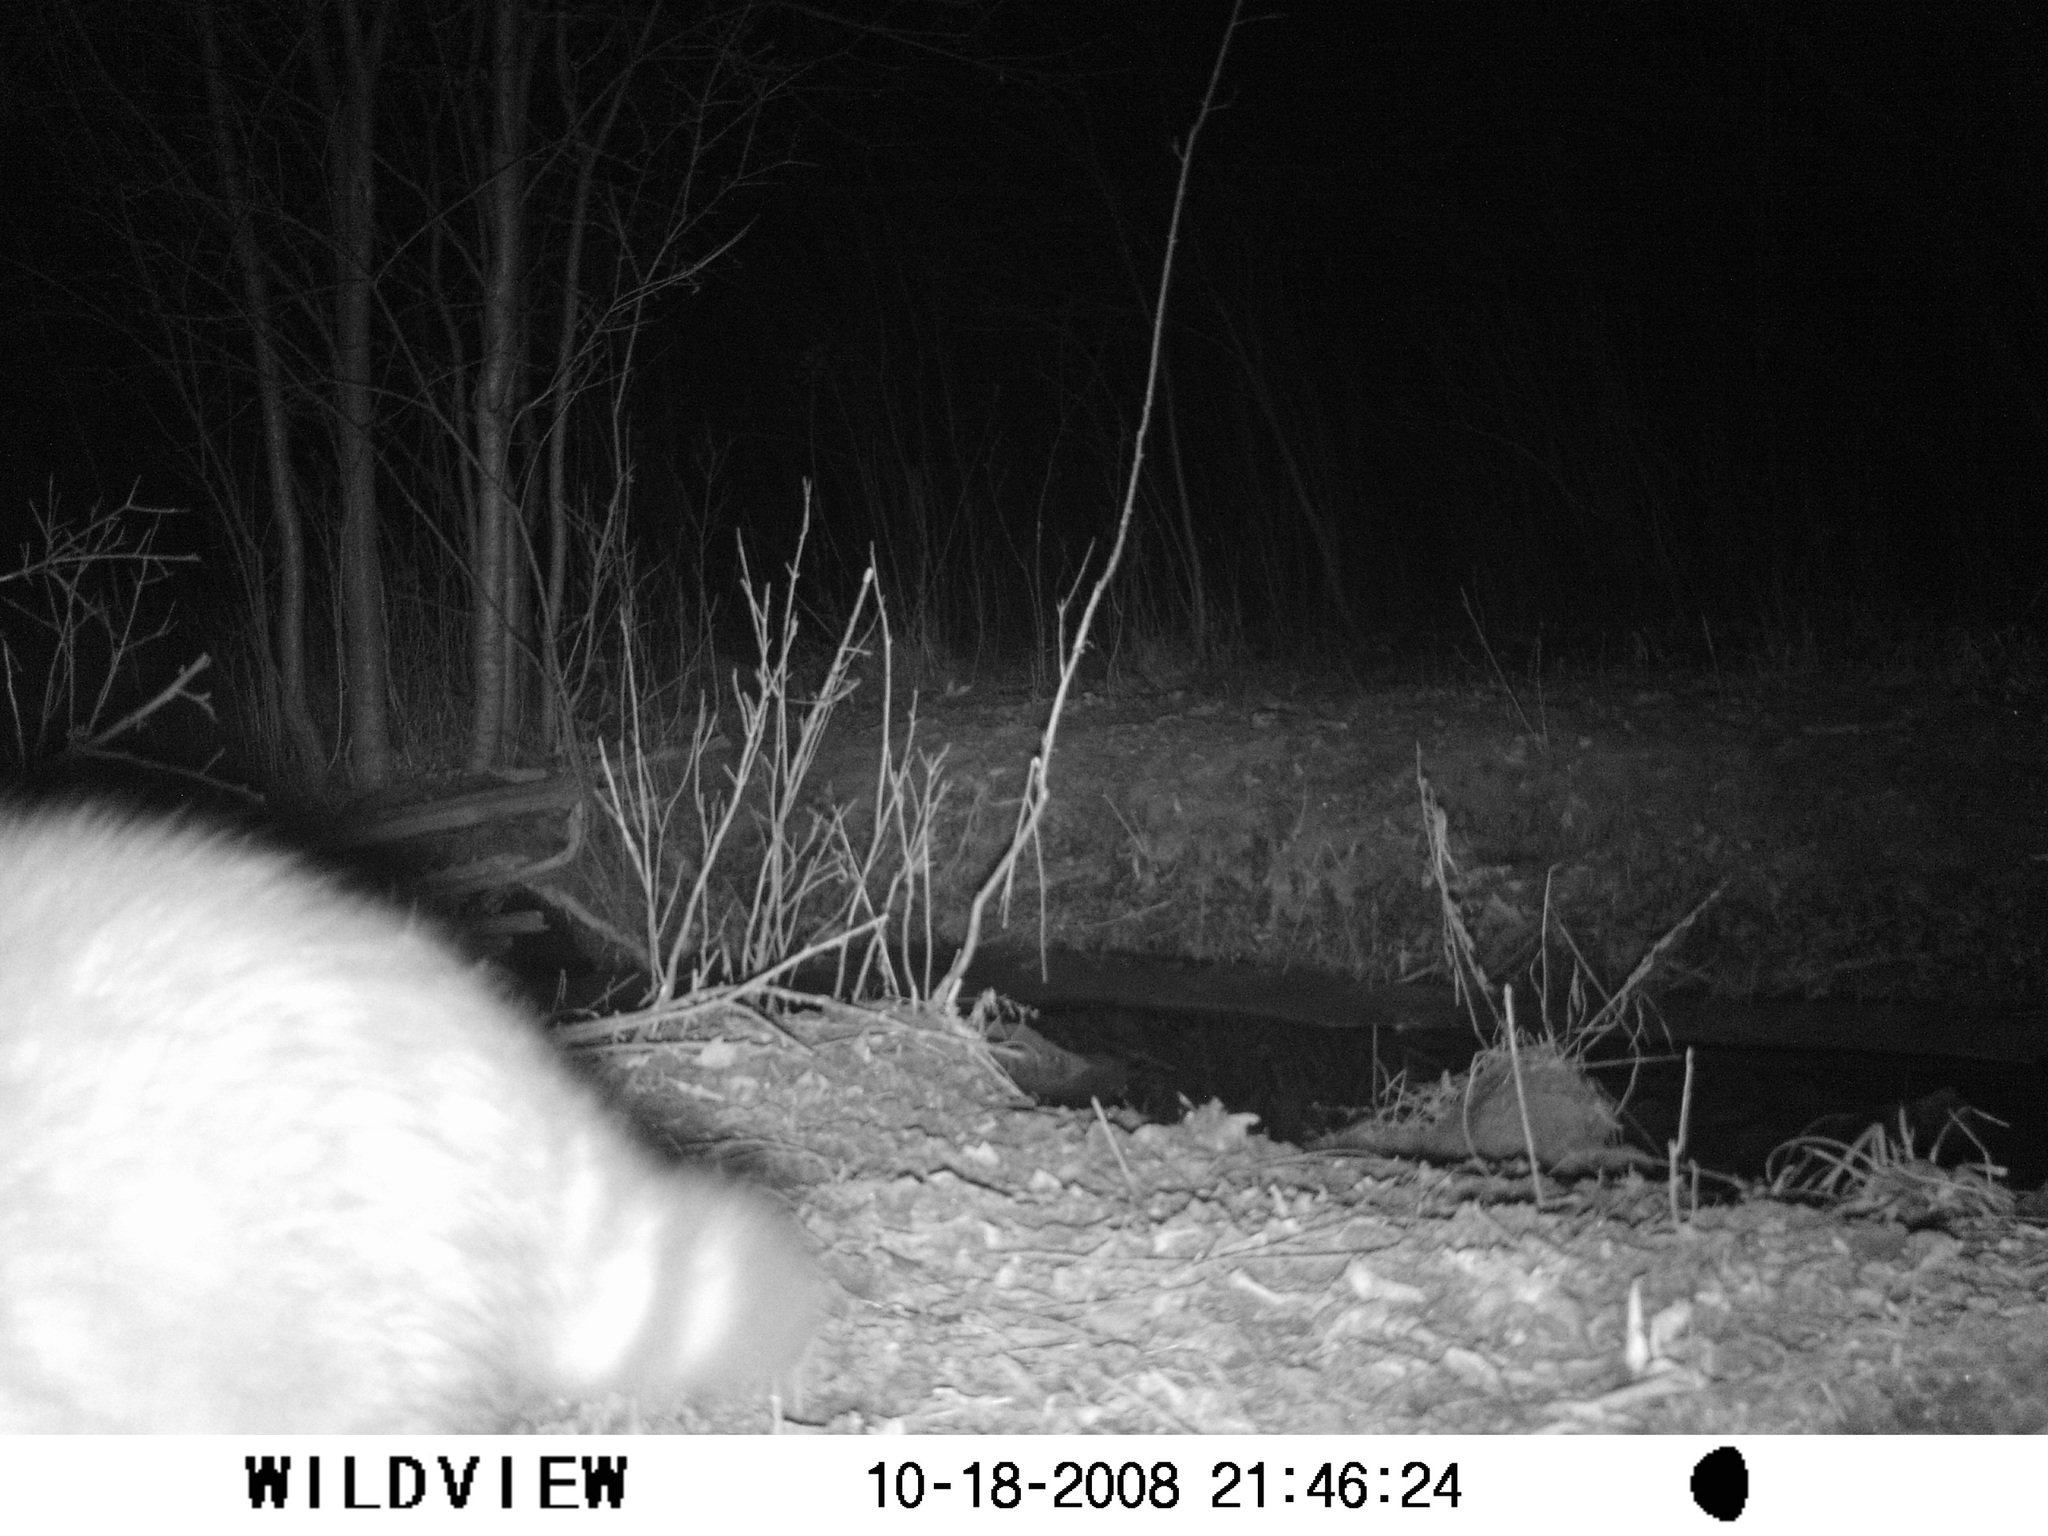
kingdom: Animalia
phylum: Chordata
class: Mammalia
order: Carnivora
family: Procyonidae
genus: Procyon
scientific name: Procyon lotor
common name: Raccoon
